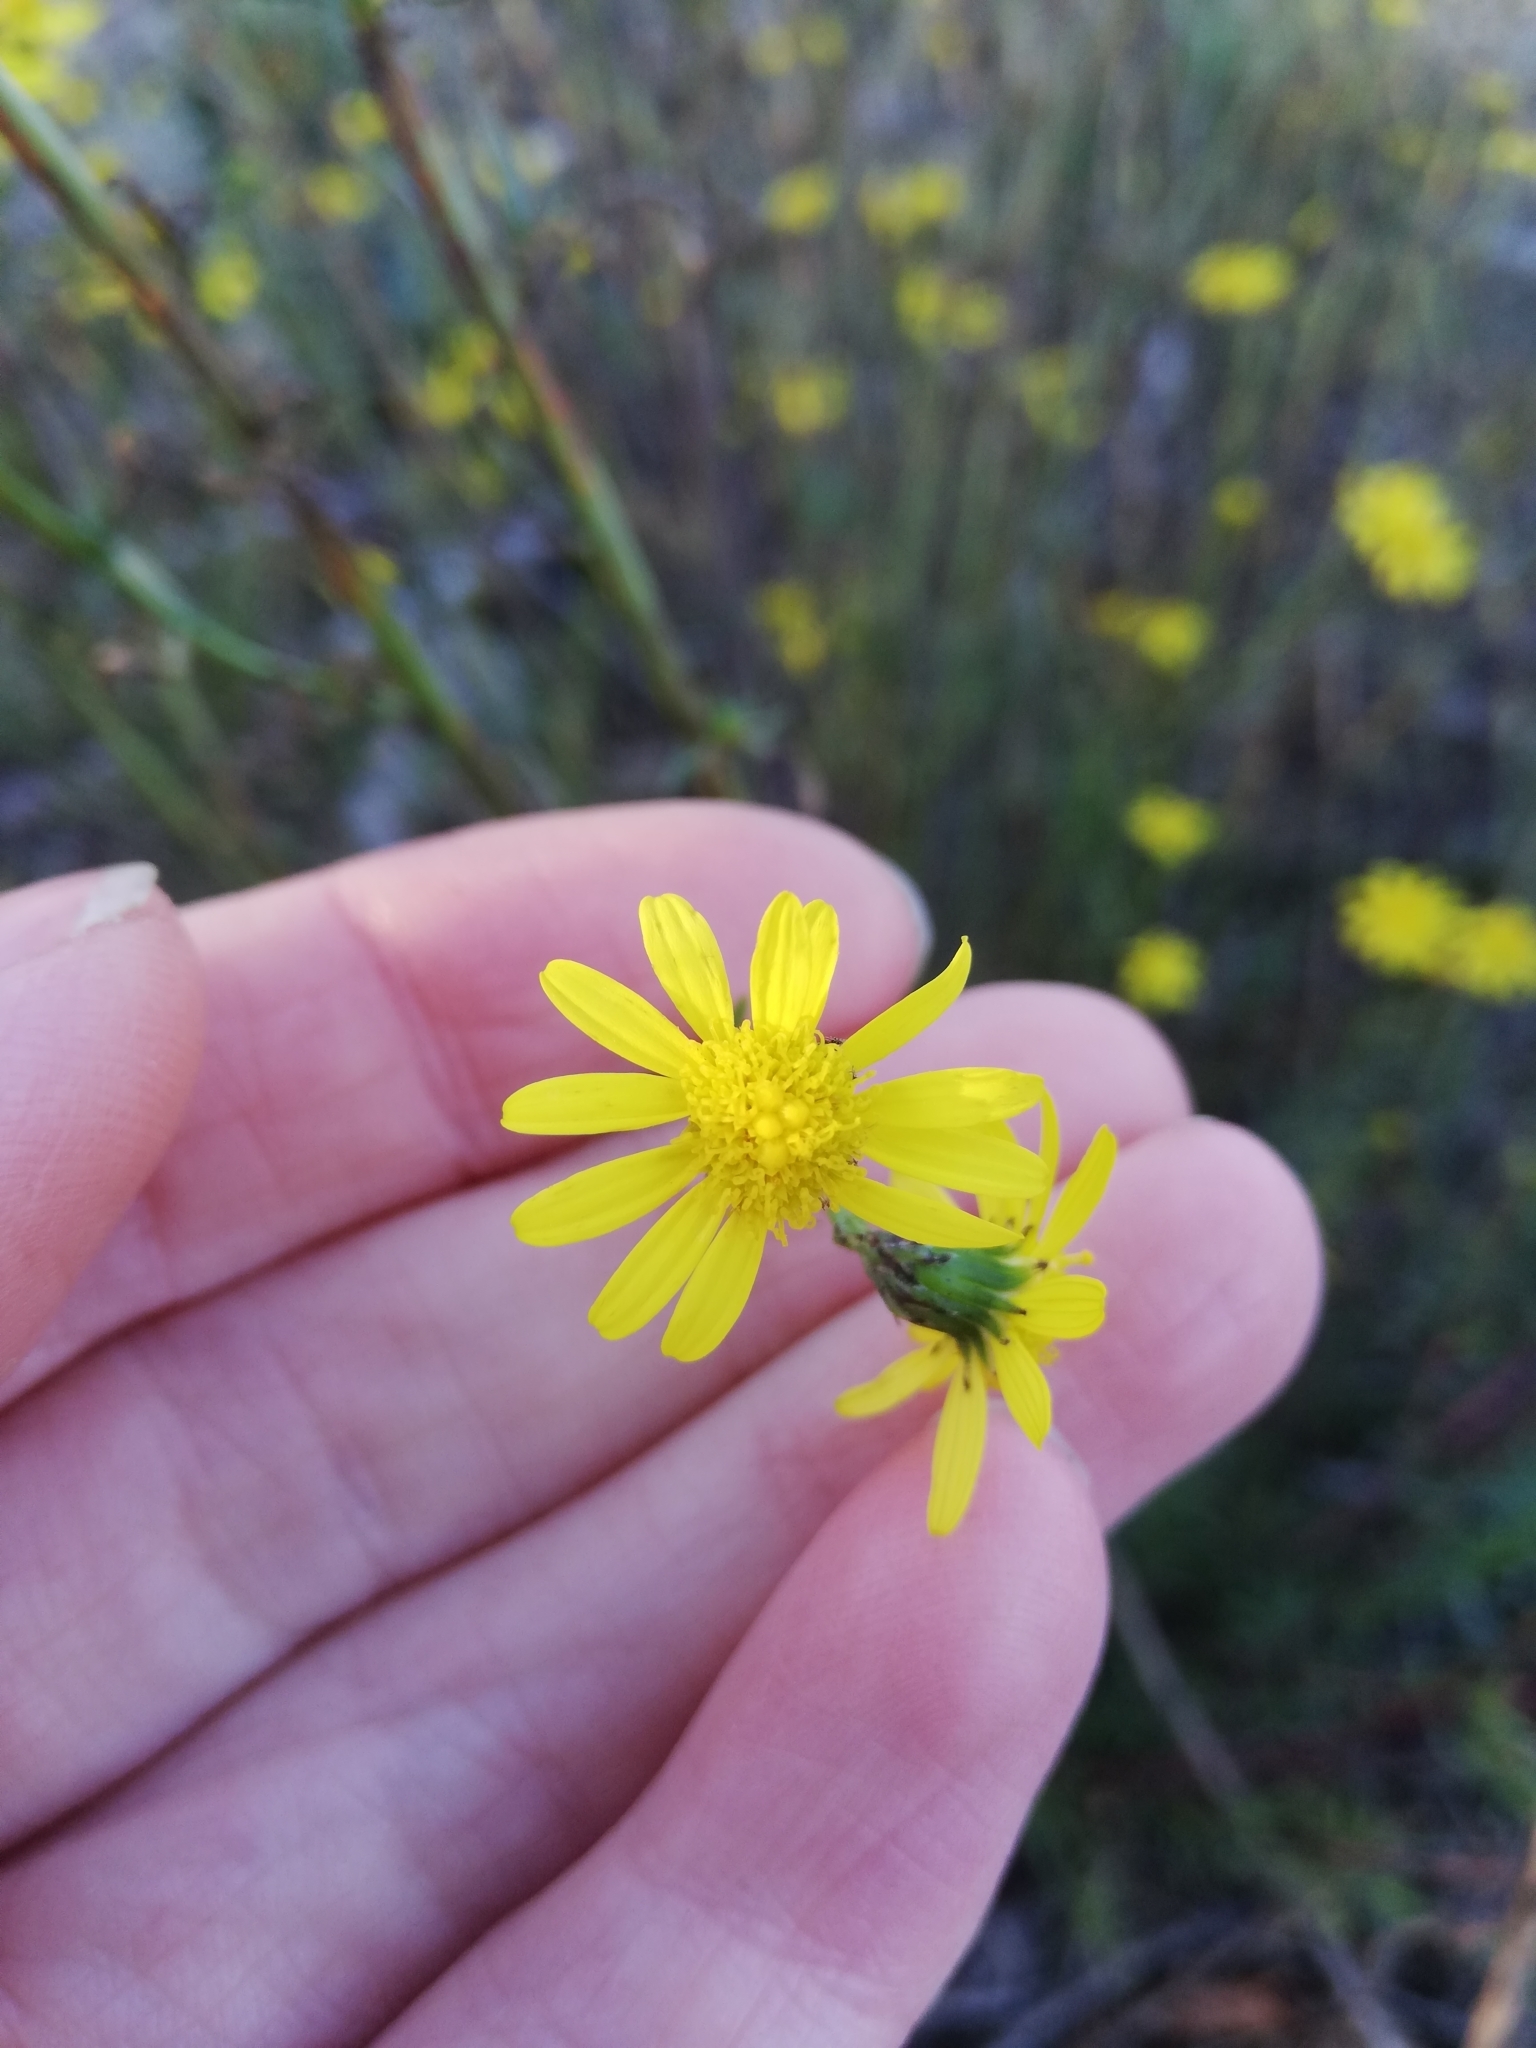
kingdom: Plantae
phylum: Tracheophyta
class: Magnoliopsida
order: Asterales
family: Asteraceae
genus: Senecio
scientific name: Senecio inaequidens
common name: Narrow-leaved ragwort
